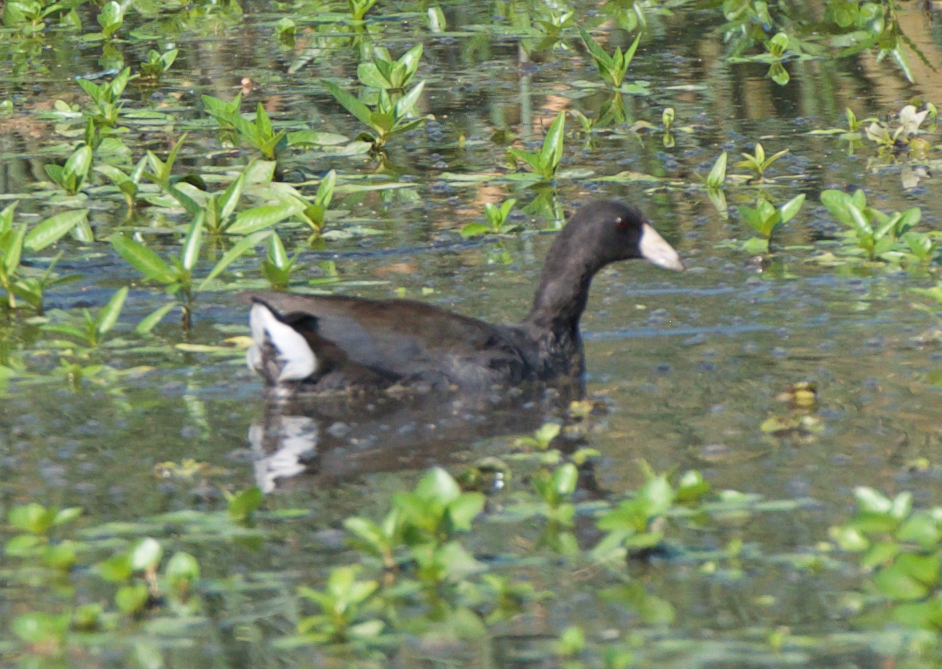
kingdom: Animalia
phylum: Chordata
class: Aves
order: Gruiformes
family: Rallidae
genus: Fulica
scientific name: Fulica americana
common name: American coot
